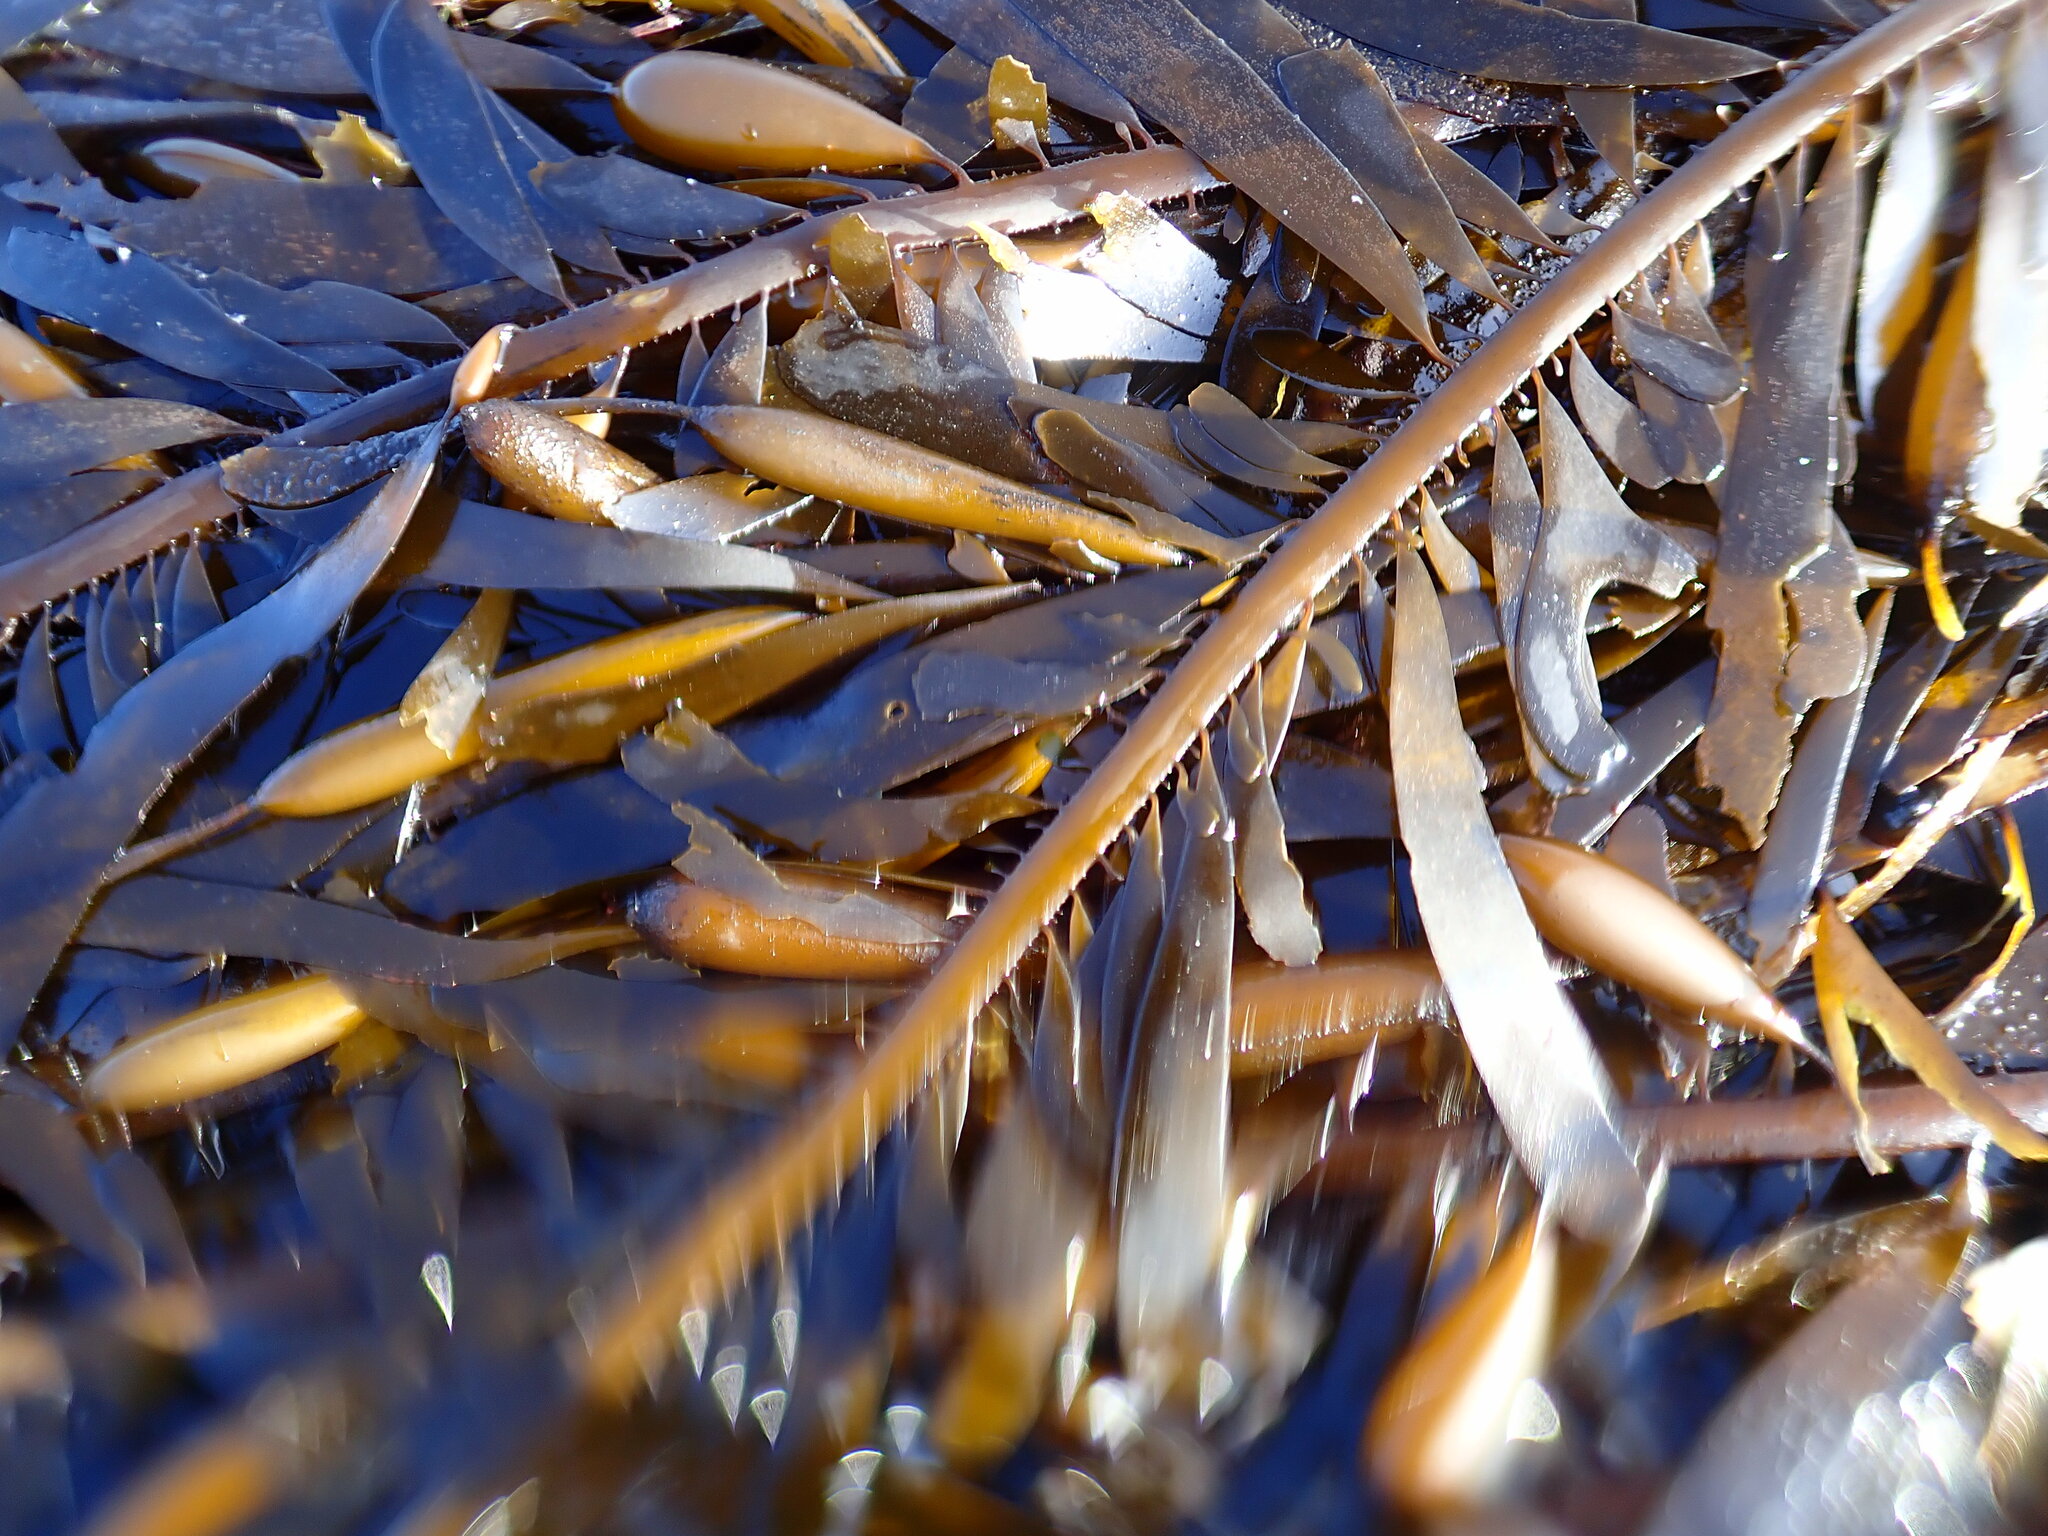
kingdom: Chromista
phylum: Ochrophyta
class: Phaeophyceae
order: Laminariales
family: Lessoniaceae
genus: Egregia
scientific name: Egregia menziesii
